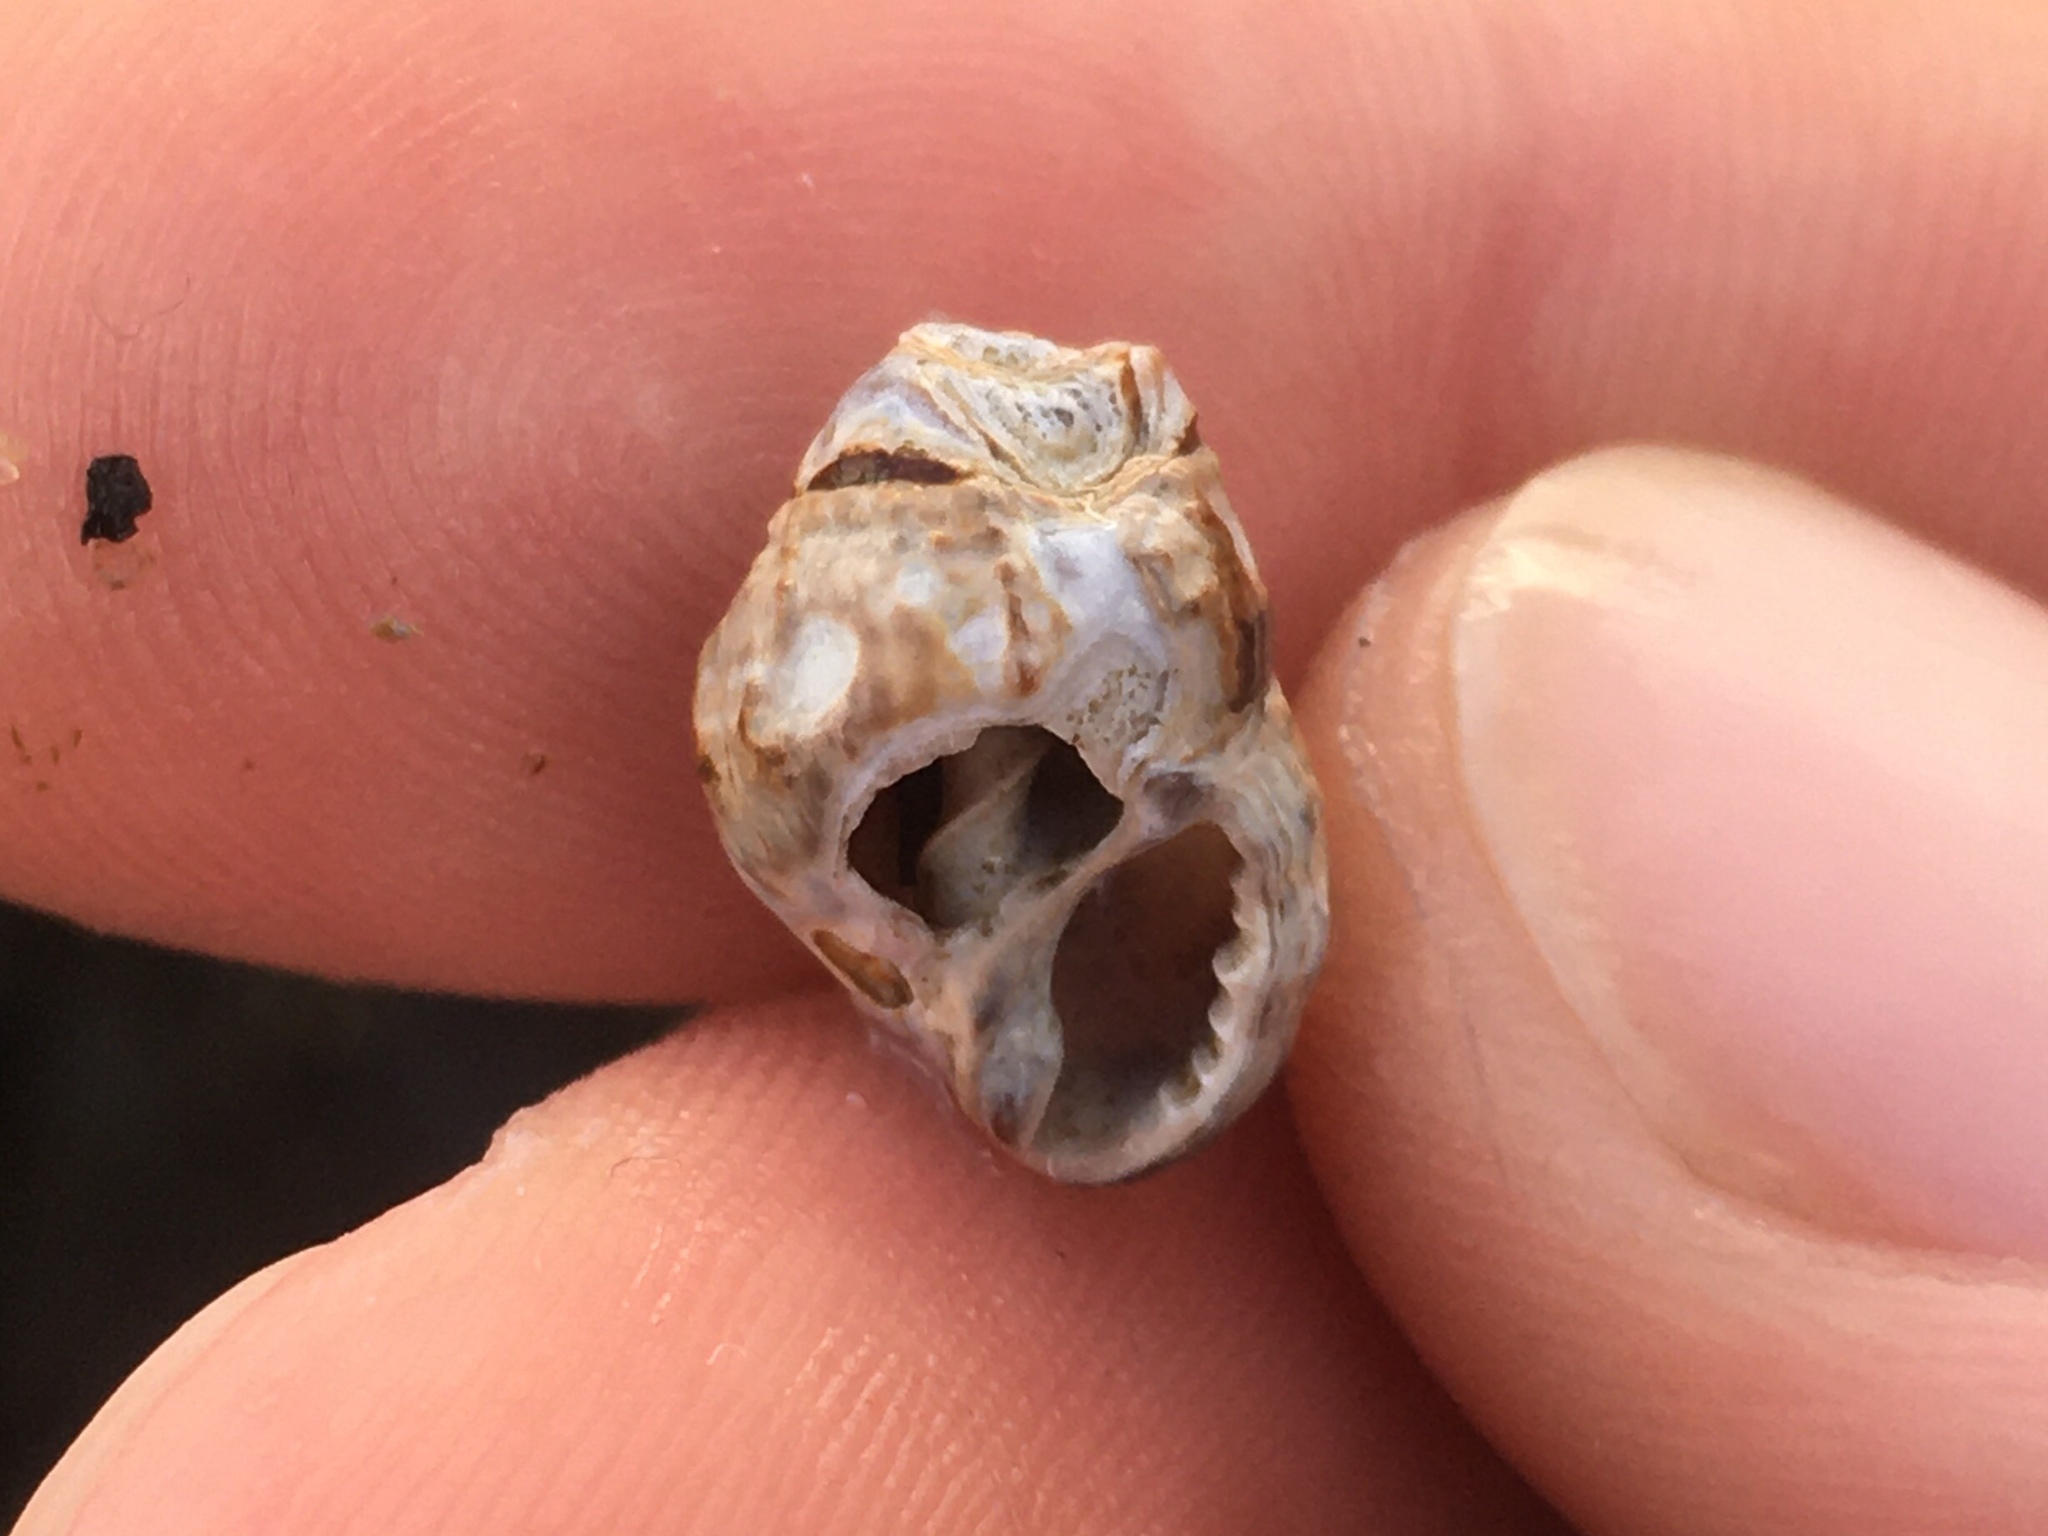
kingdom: Animalia
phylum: Mollusca
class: Gastropoda
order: Neogastropoda
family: Nassariidae
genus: Ilyanassa
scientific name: Ilyanassa obsoleta
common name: Eastern mudsnail
